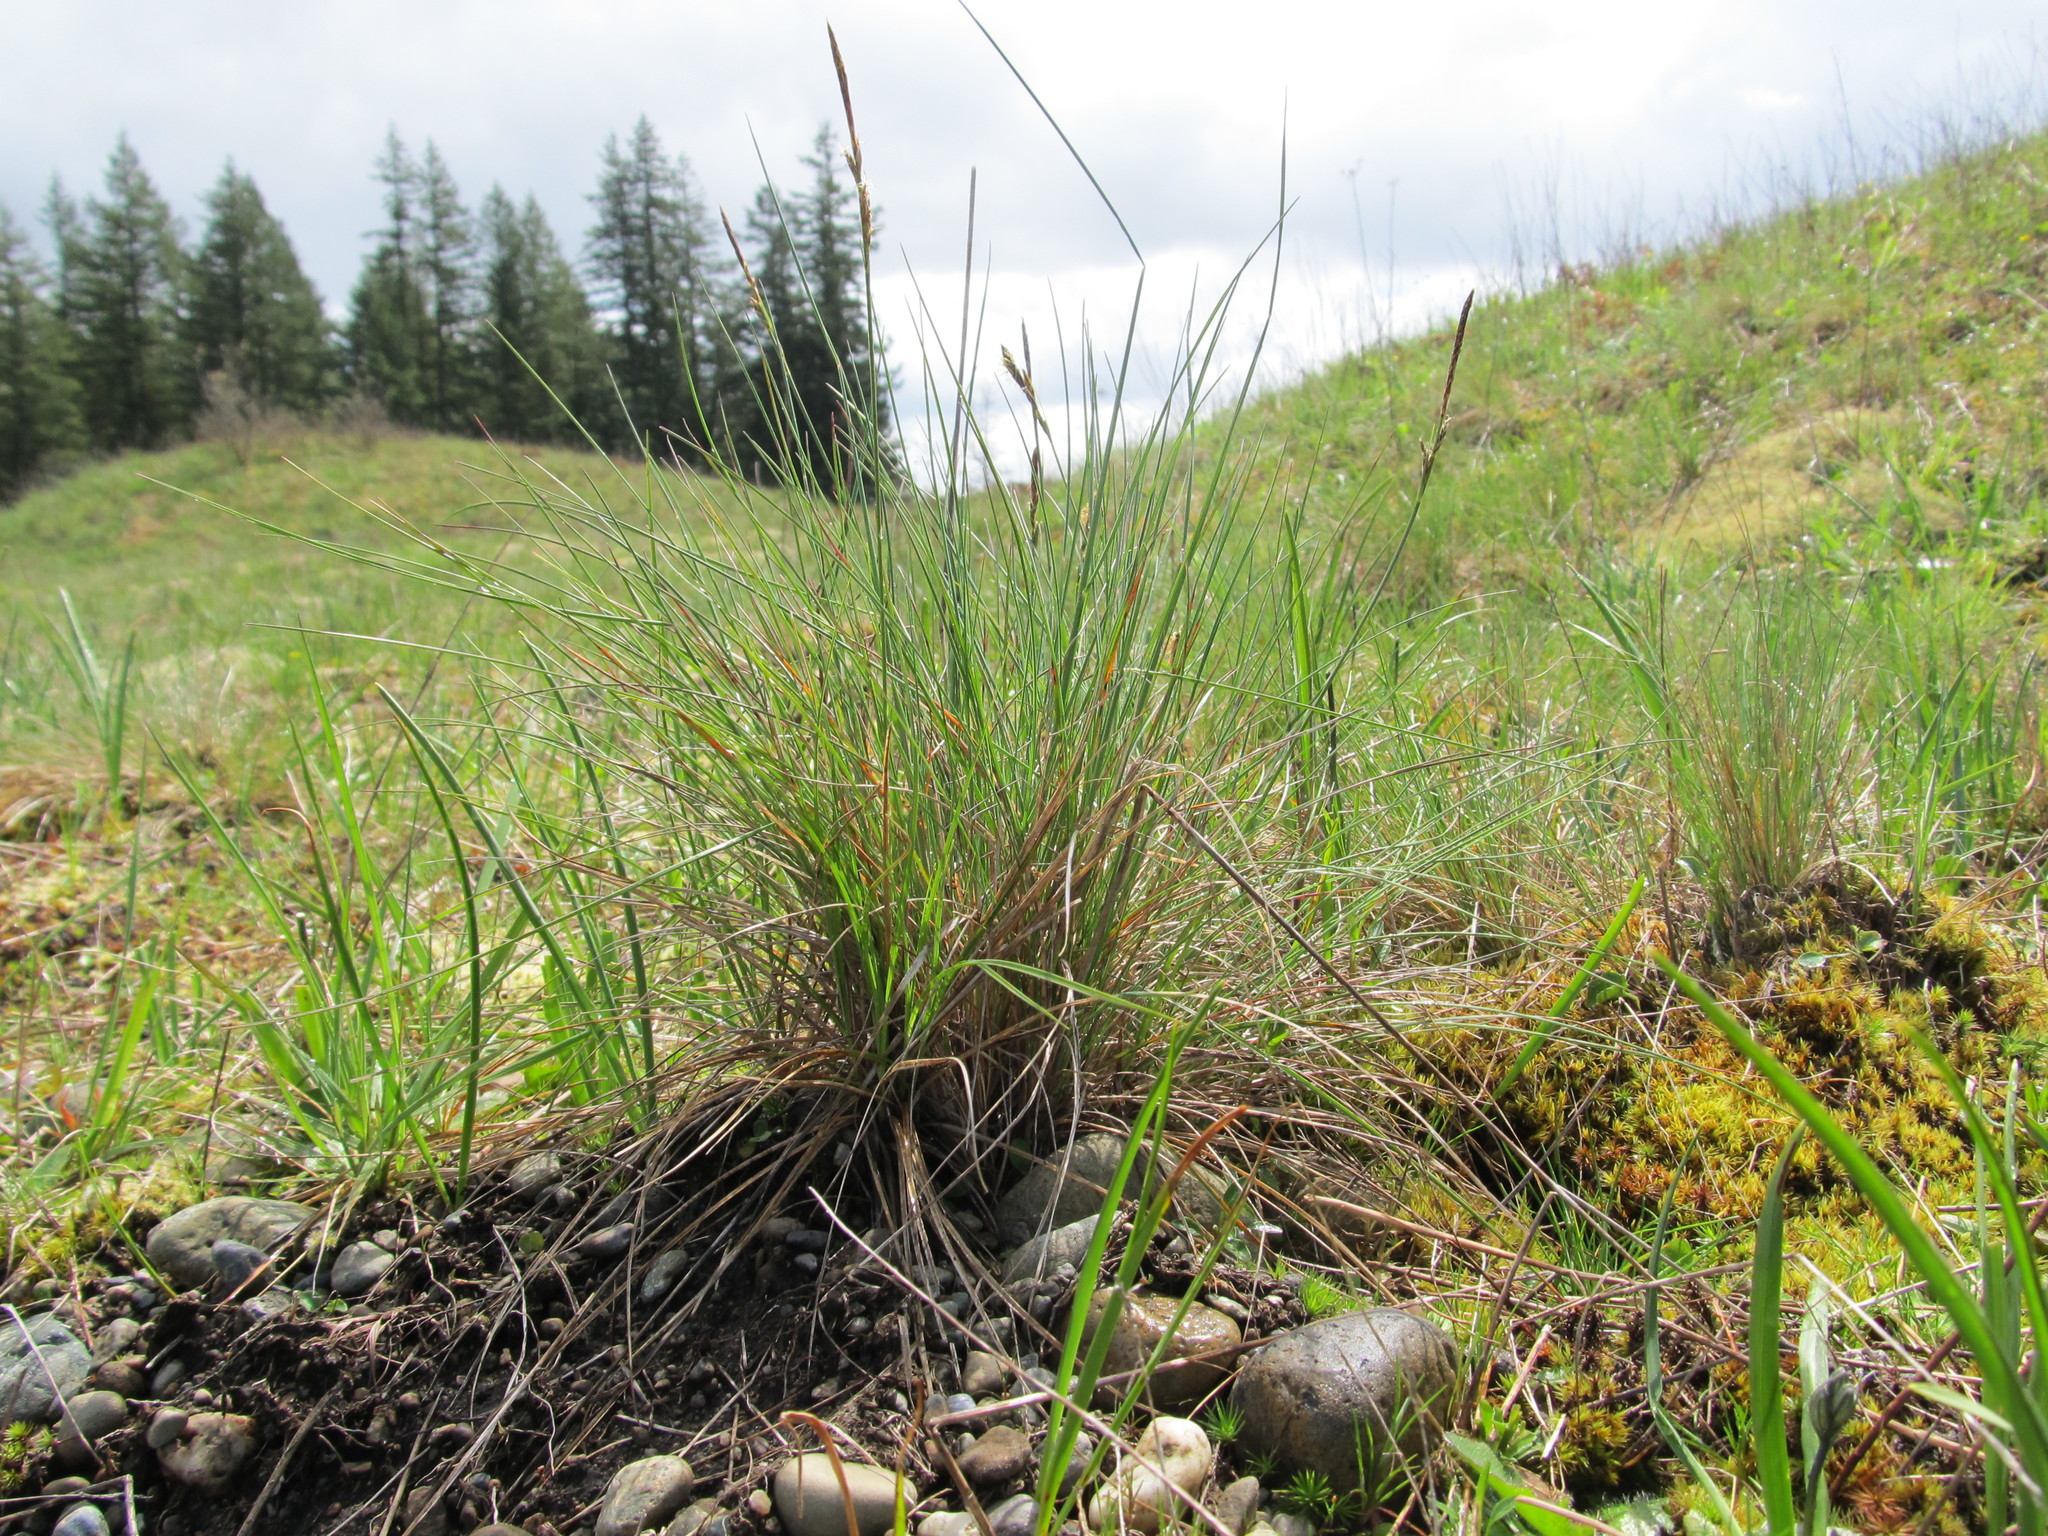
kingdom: Plantae
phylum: Tracheophyta
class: Liliopsida
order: Poales
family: Poaceae
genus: Festuca
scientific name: Festuca idahoensis
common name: Idaho fescue
